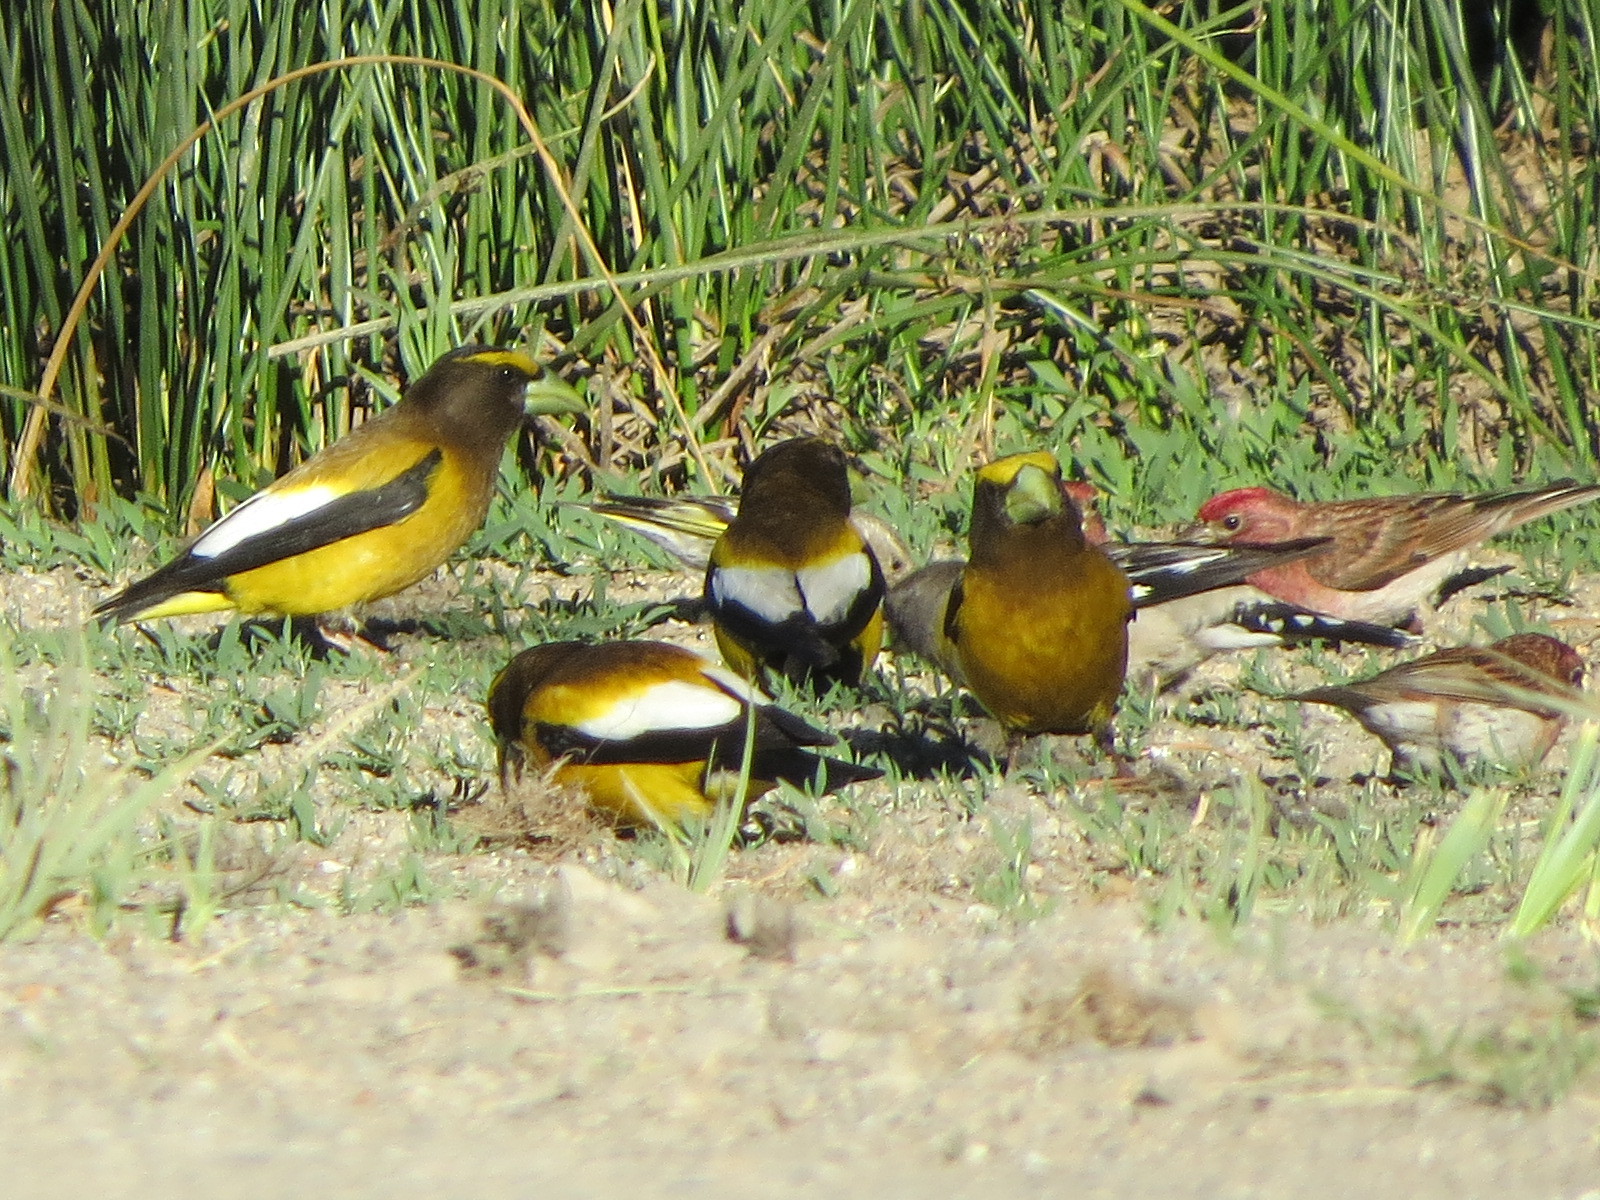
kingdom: Animalia
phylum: Chordata
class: Aves
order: Passeriformes
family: Fringillidae
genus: Haemorhous
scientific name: Haemorhous cassinii
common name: Cassin's finch
